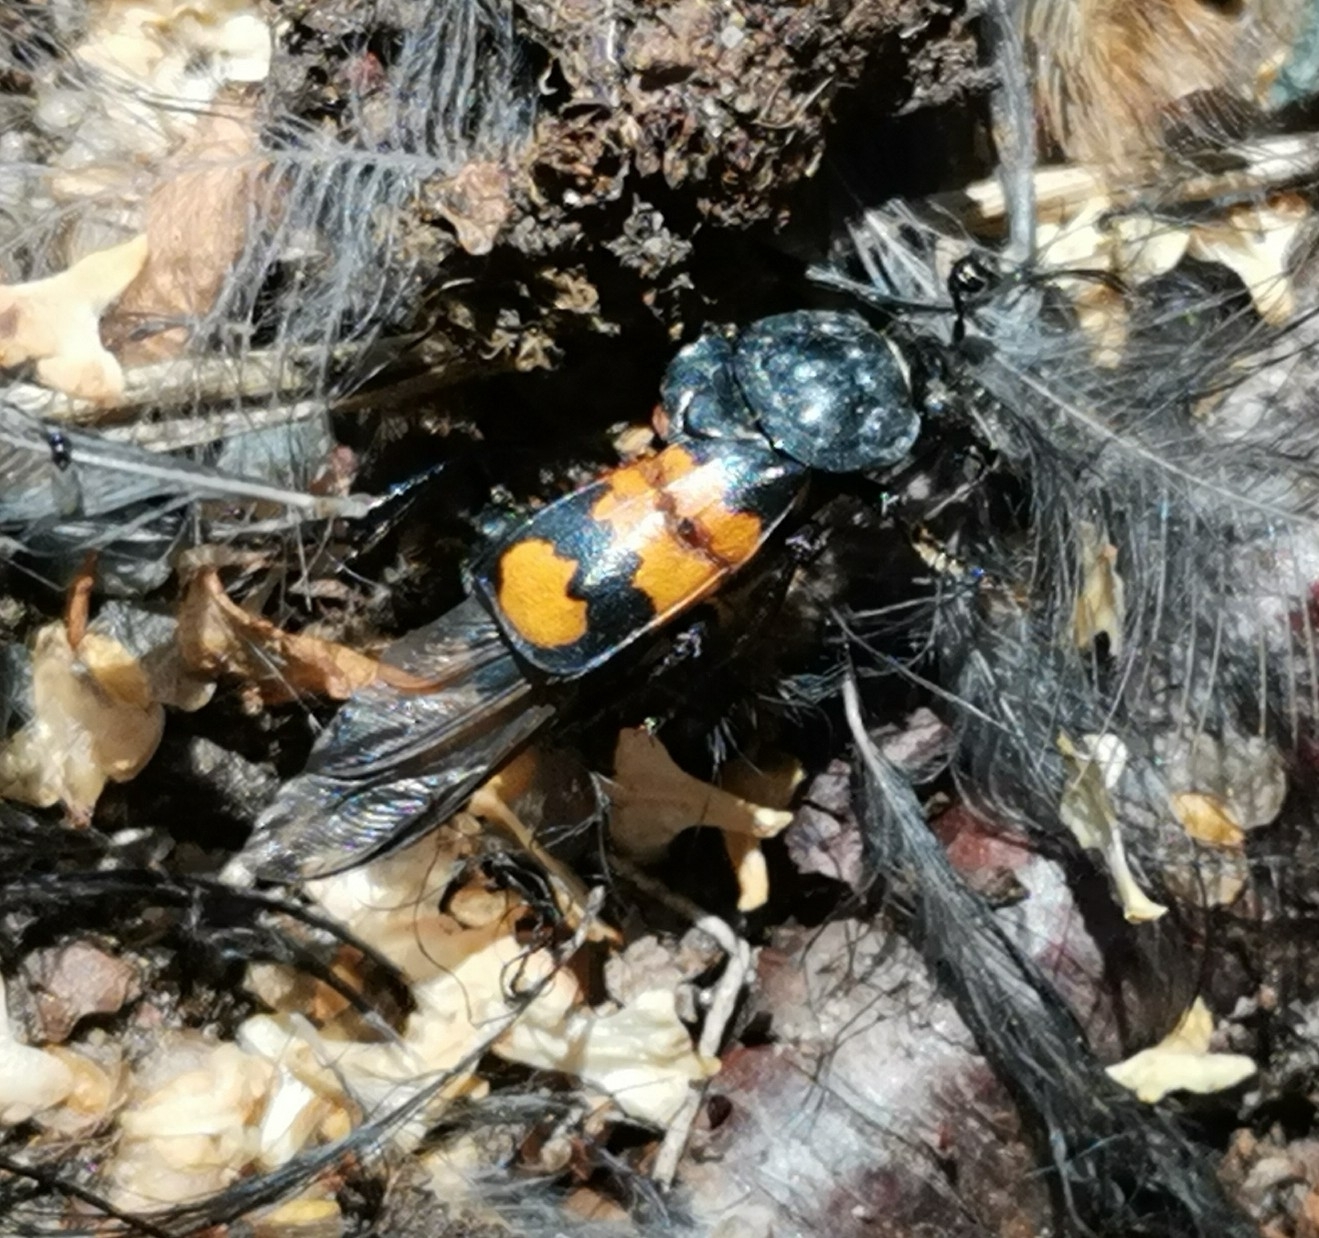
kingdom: Animalia
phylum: Arthropoda
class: Insecta
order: Coleoptera
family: Staphylinidae
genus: Nicrophorus
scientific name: Nicrophorus vespilloides
